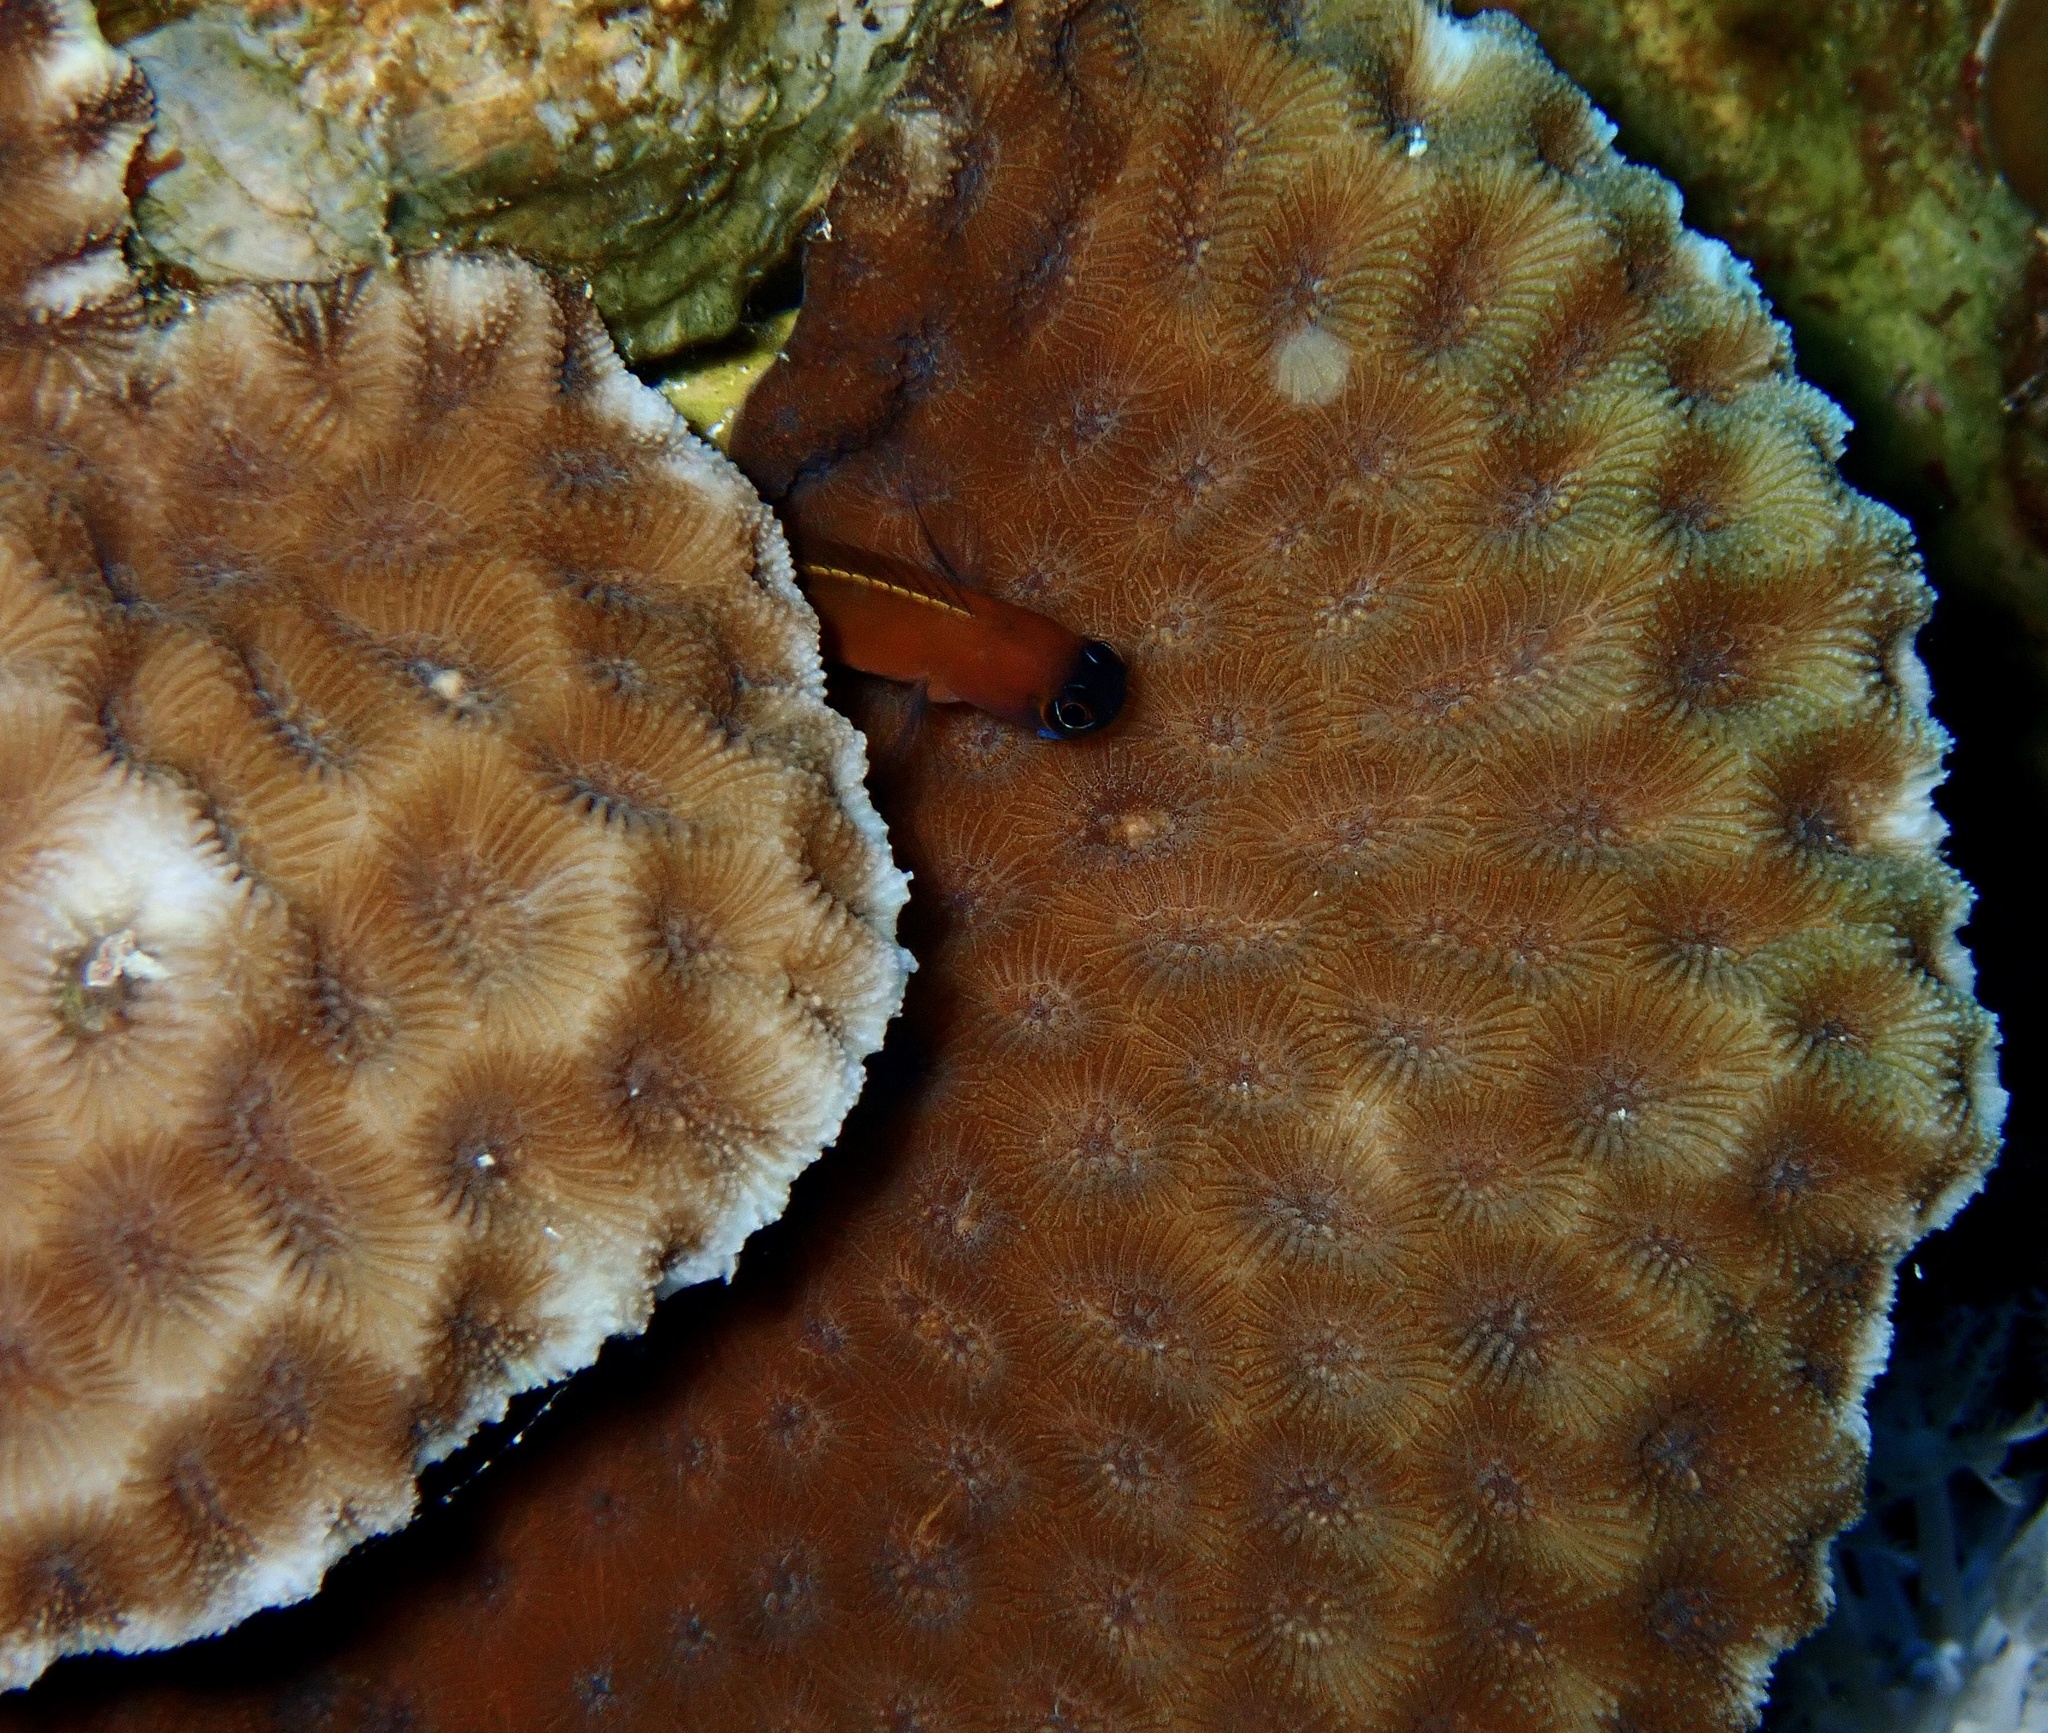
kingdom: Animalia
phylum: Cnidaria
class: Anthozoa
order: Scleractinia
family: Merulinidae
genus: Goniastrea
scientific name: Goniastrea pectinata
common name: Lesser star coral
